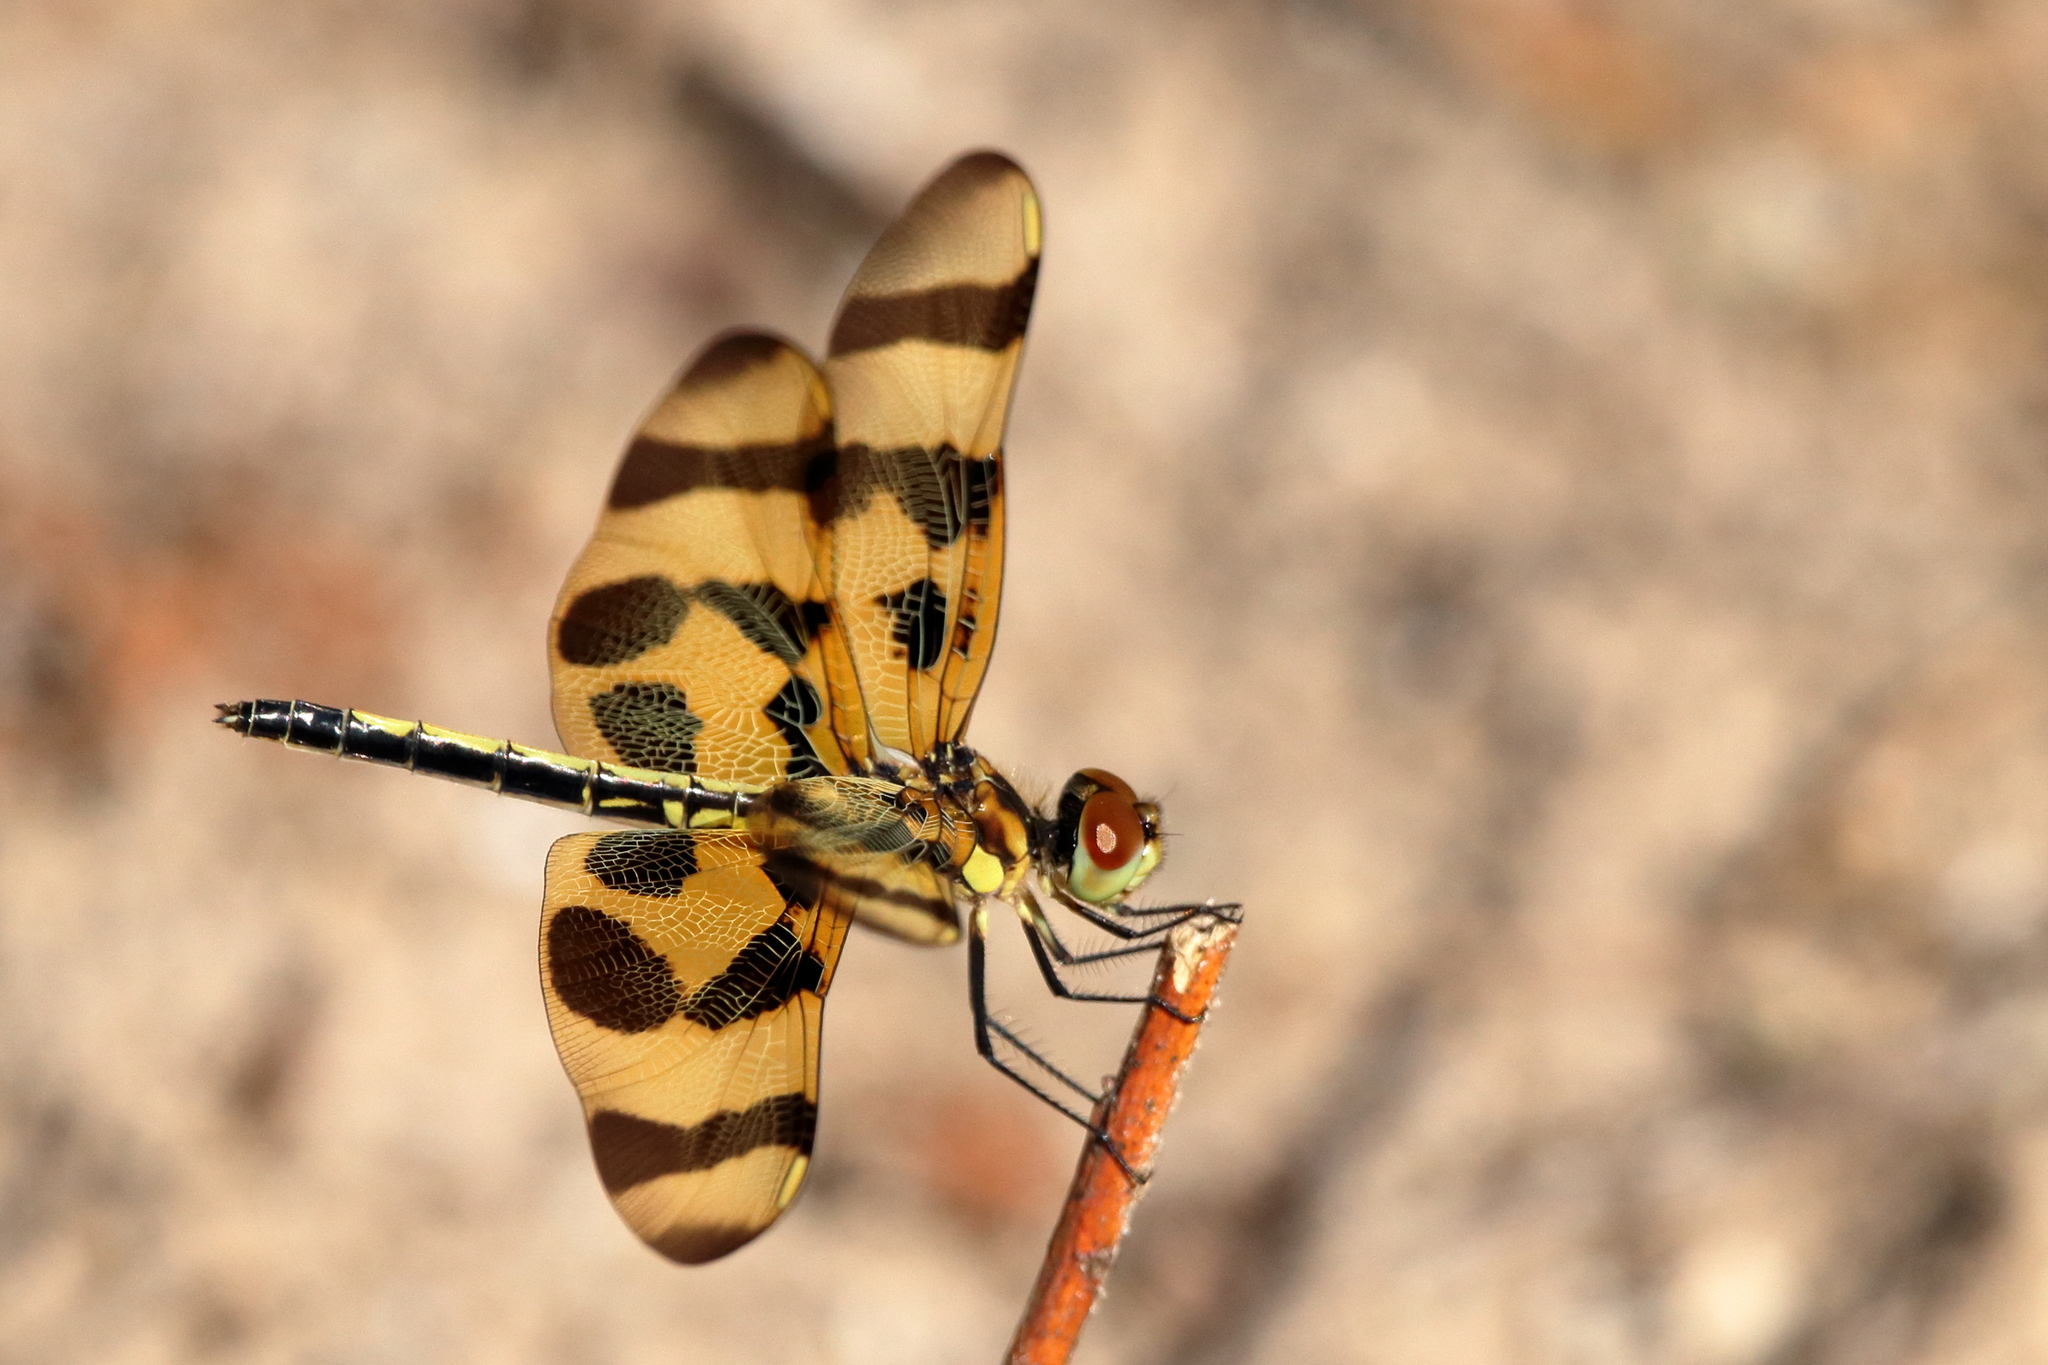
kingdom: Animalia
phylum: Arthropoda
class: Insecta
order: Odonata
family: Libellulidae
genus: Celithemis
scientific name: Celithemis eponina
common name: Halloween pennant
